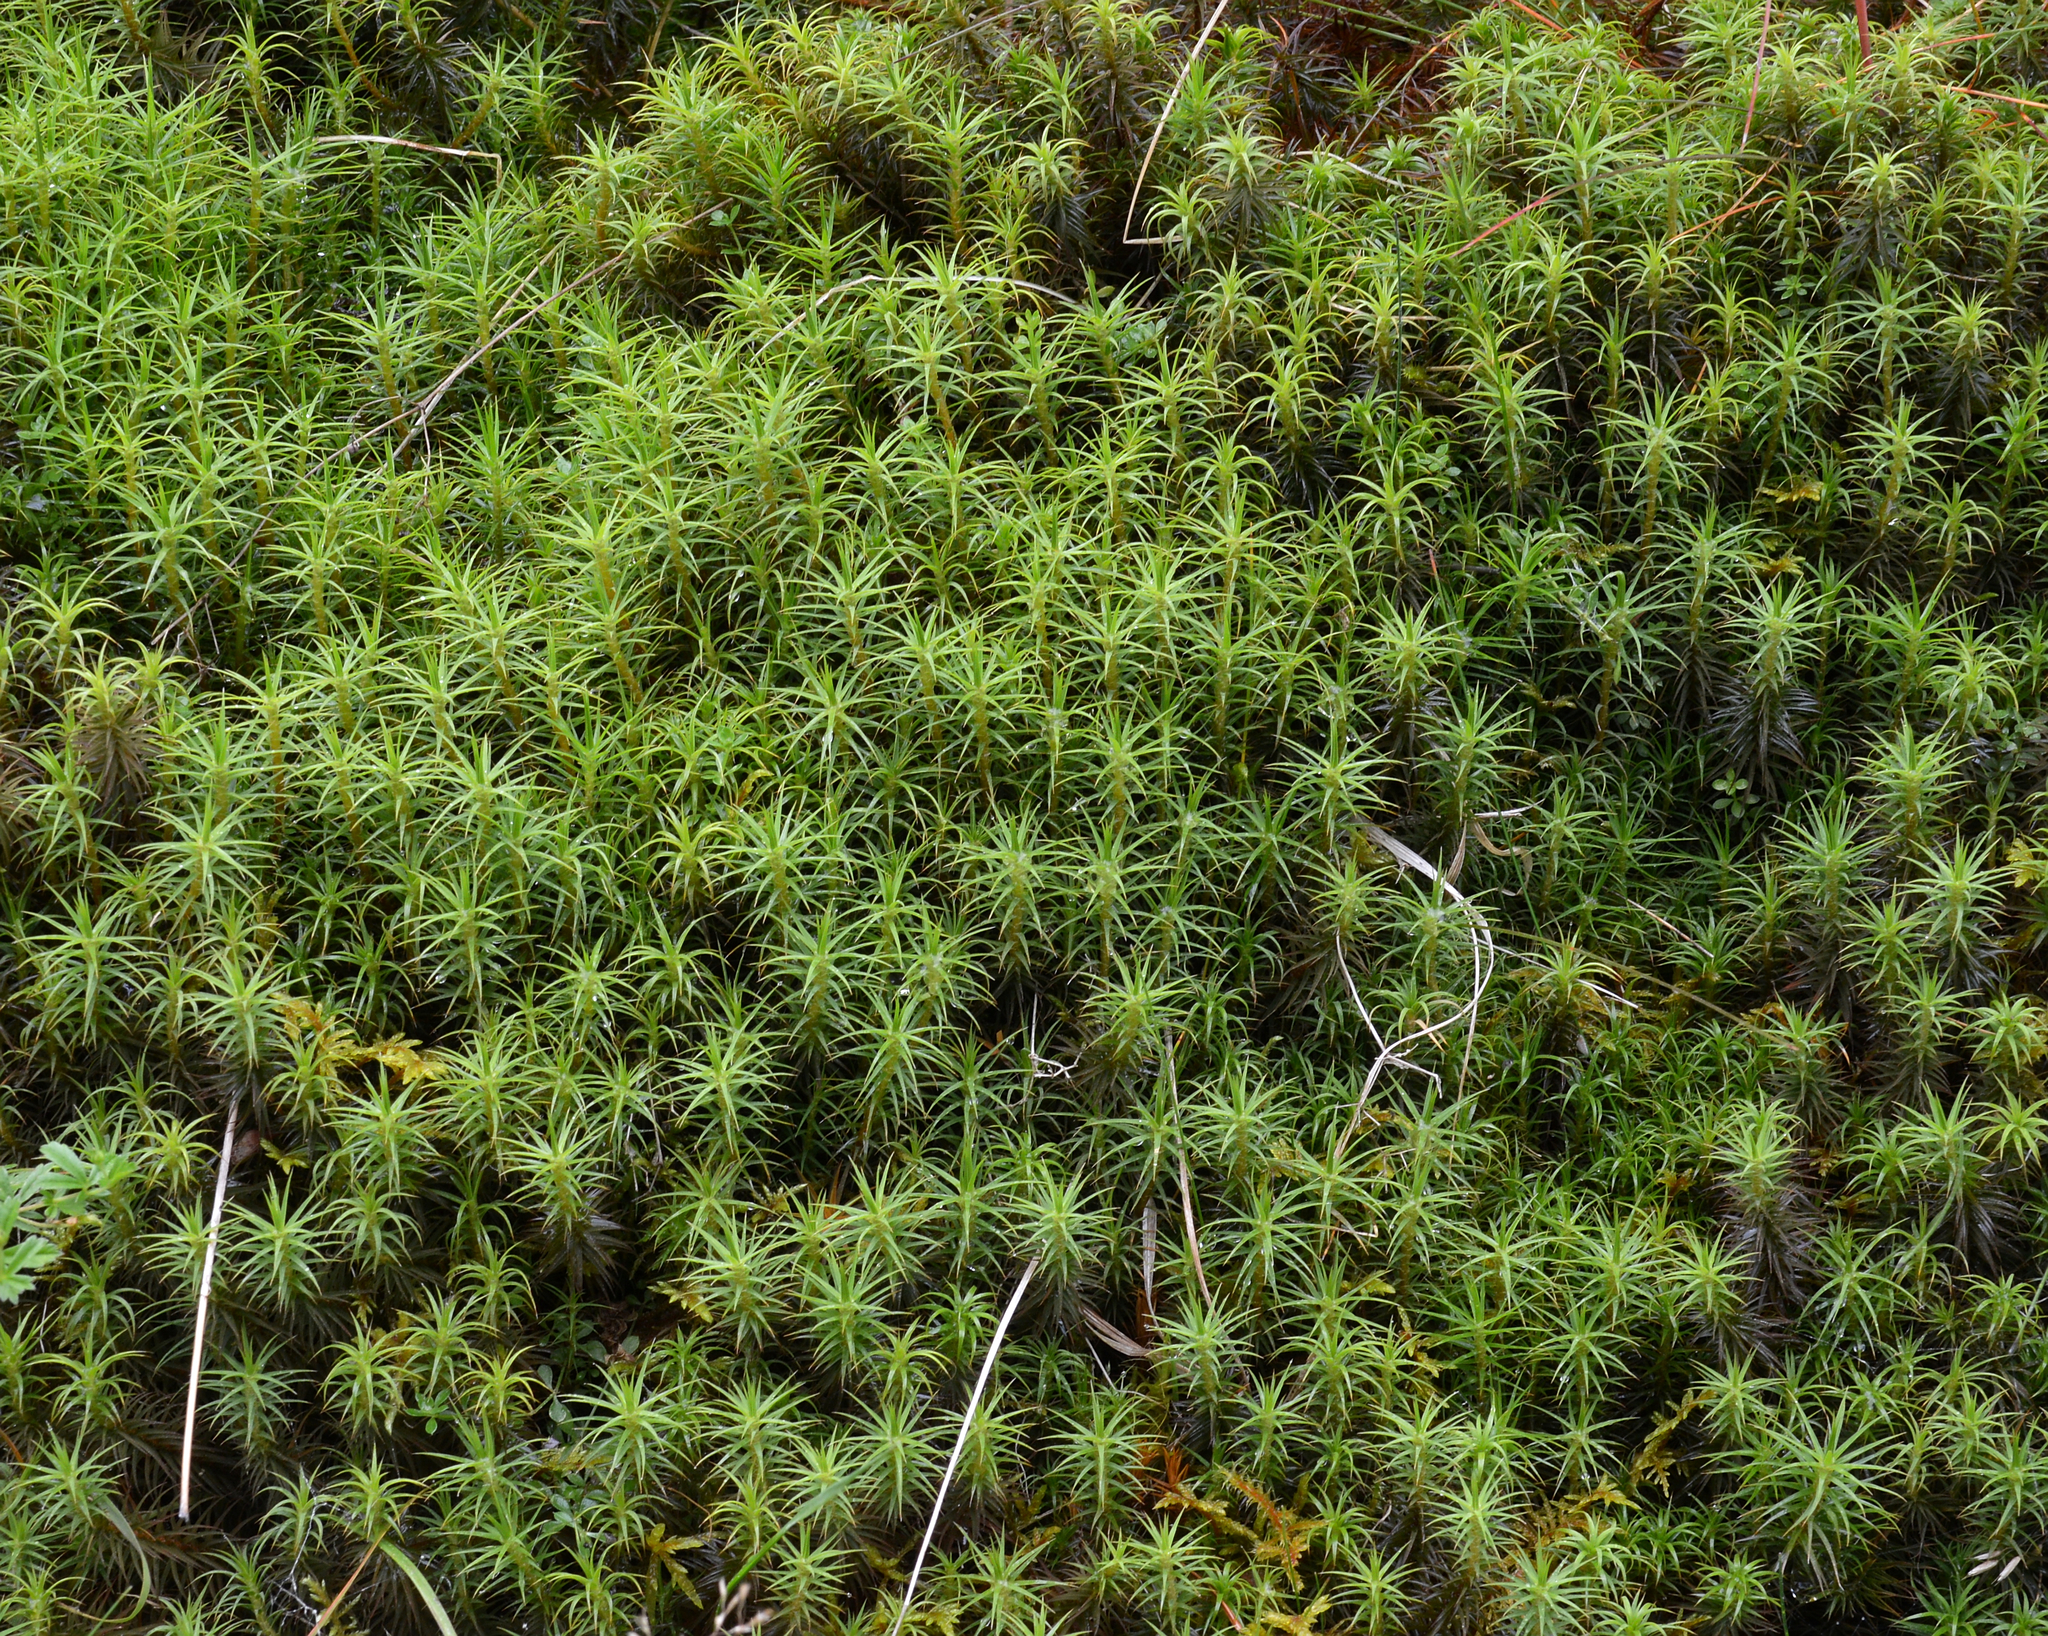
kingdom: Plantae
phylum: Bryophyta
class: Polytrichopsida
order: Polytrichales
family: Polytrichaceae
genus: Polytrichum
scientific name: Polytrichum commune
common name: Common haircap
